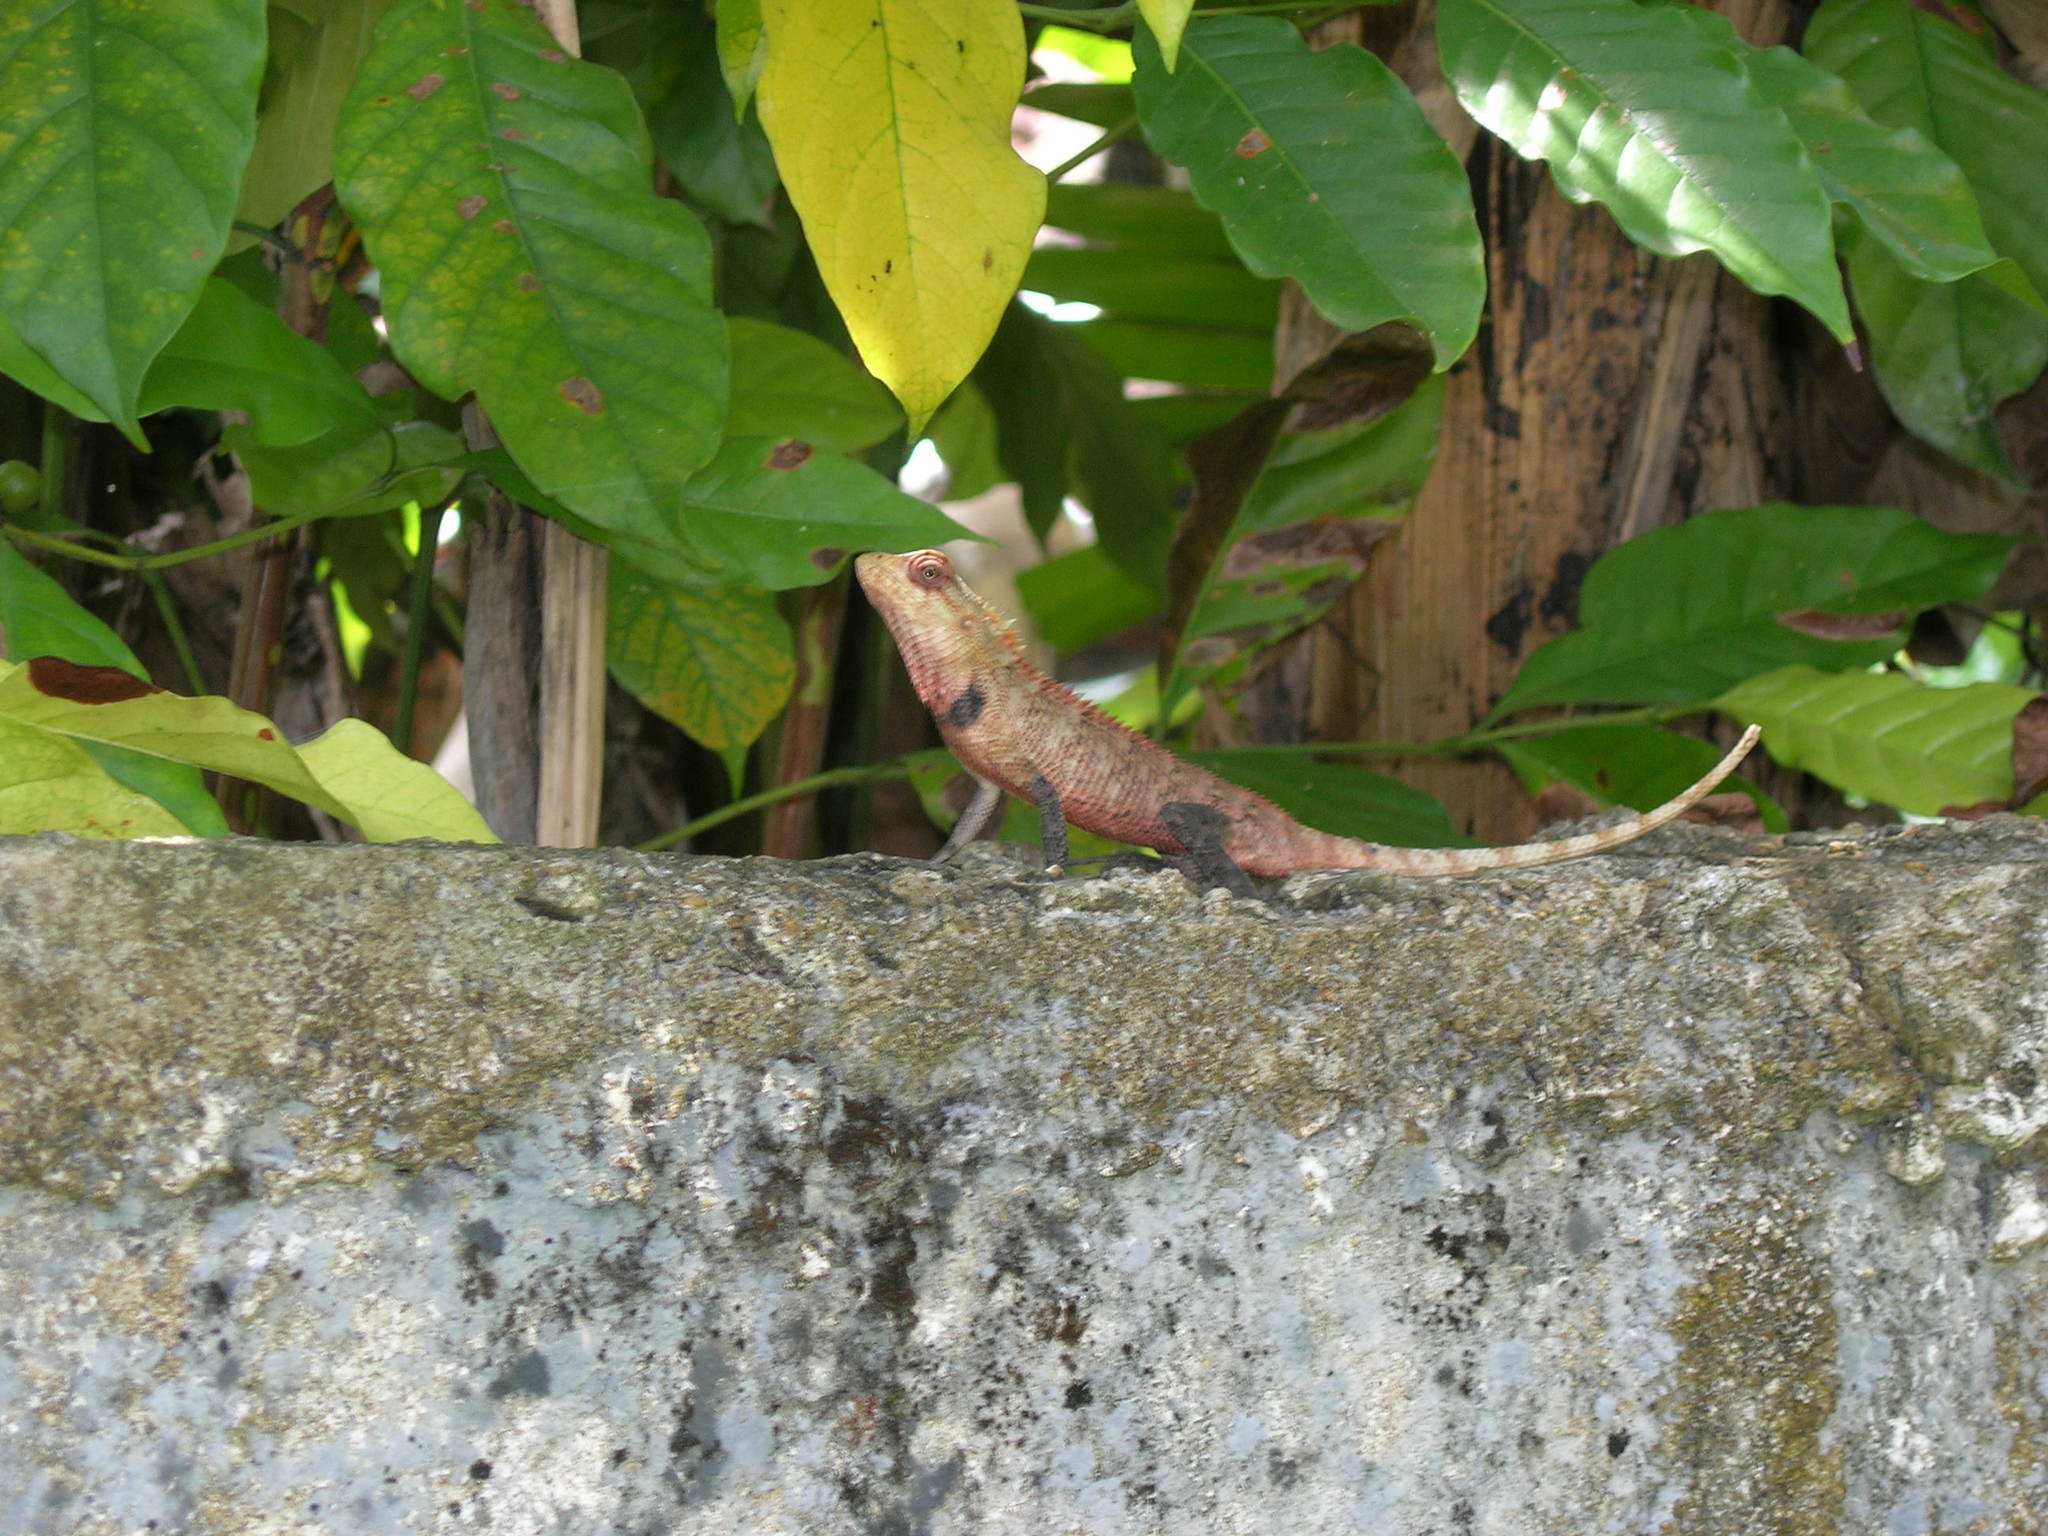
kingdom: Animalia
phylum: Chordata
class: Squamata
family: Agamidae
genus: Calotes
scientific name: Calotes versicolor
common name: Oriental garden lizard
